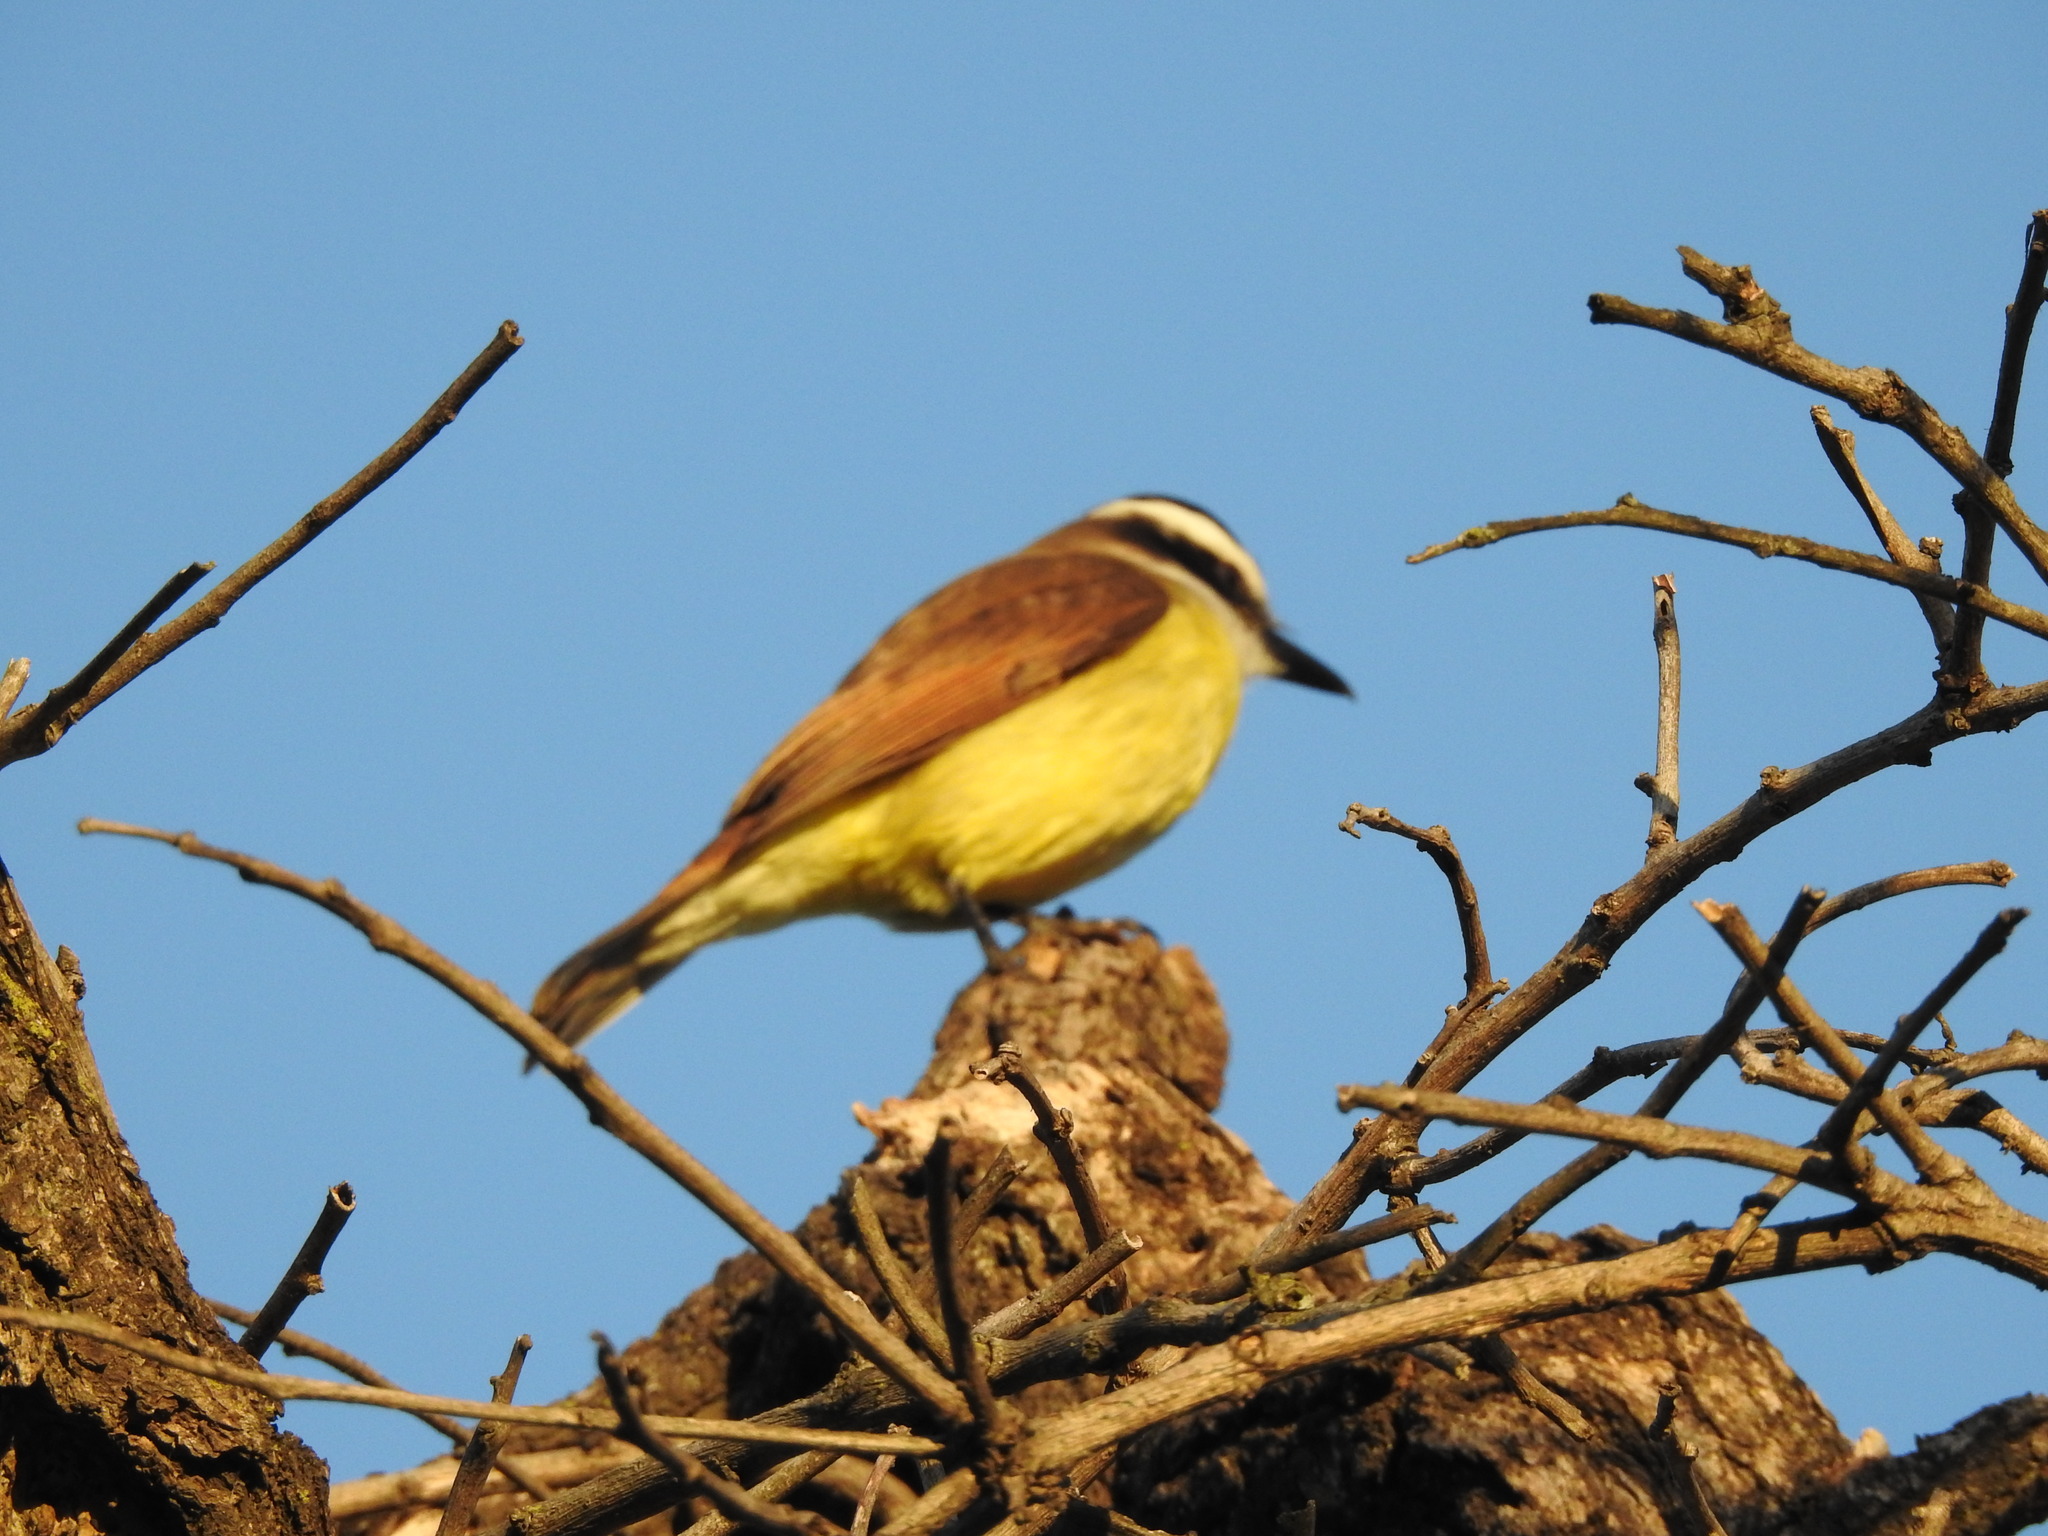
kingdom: Animalia
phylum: Chordata
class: Aves
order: Passeriformes
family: Tyrannidae
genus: Pitangus
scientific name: Pitangus sulphuratus
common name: Great kiskadee
